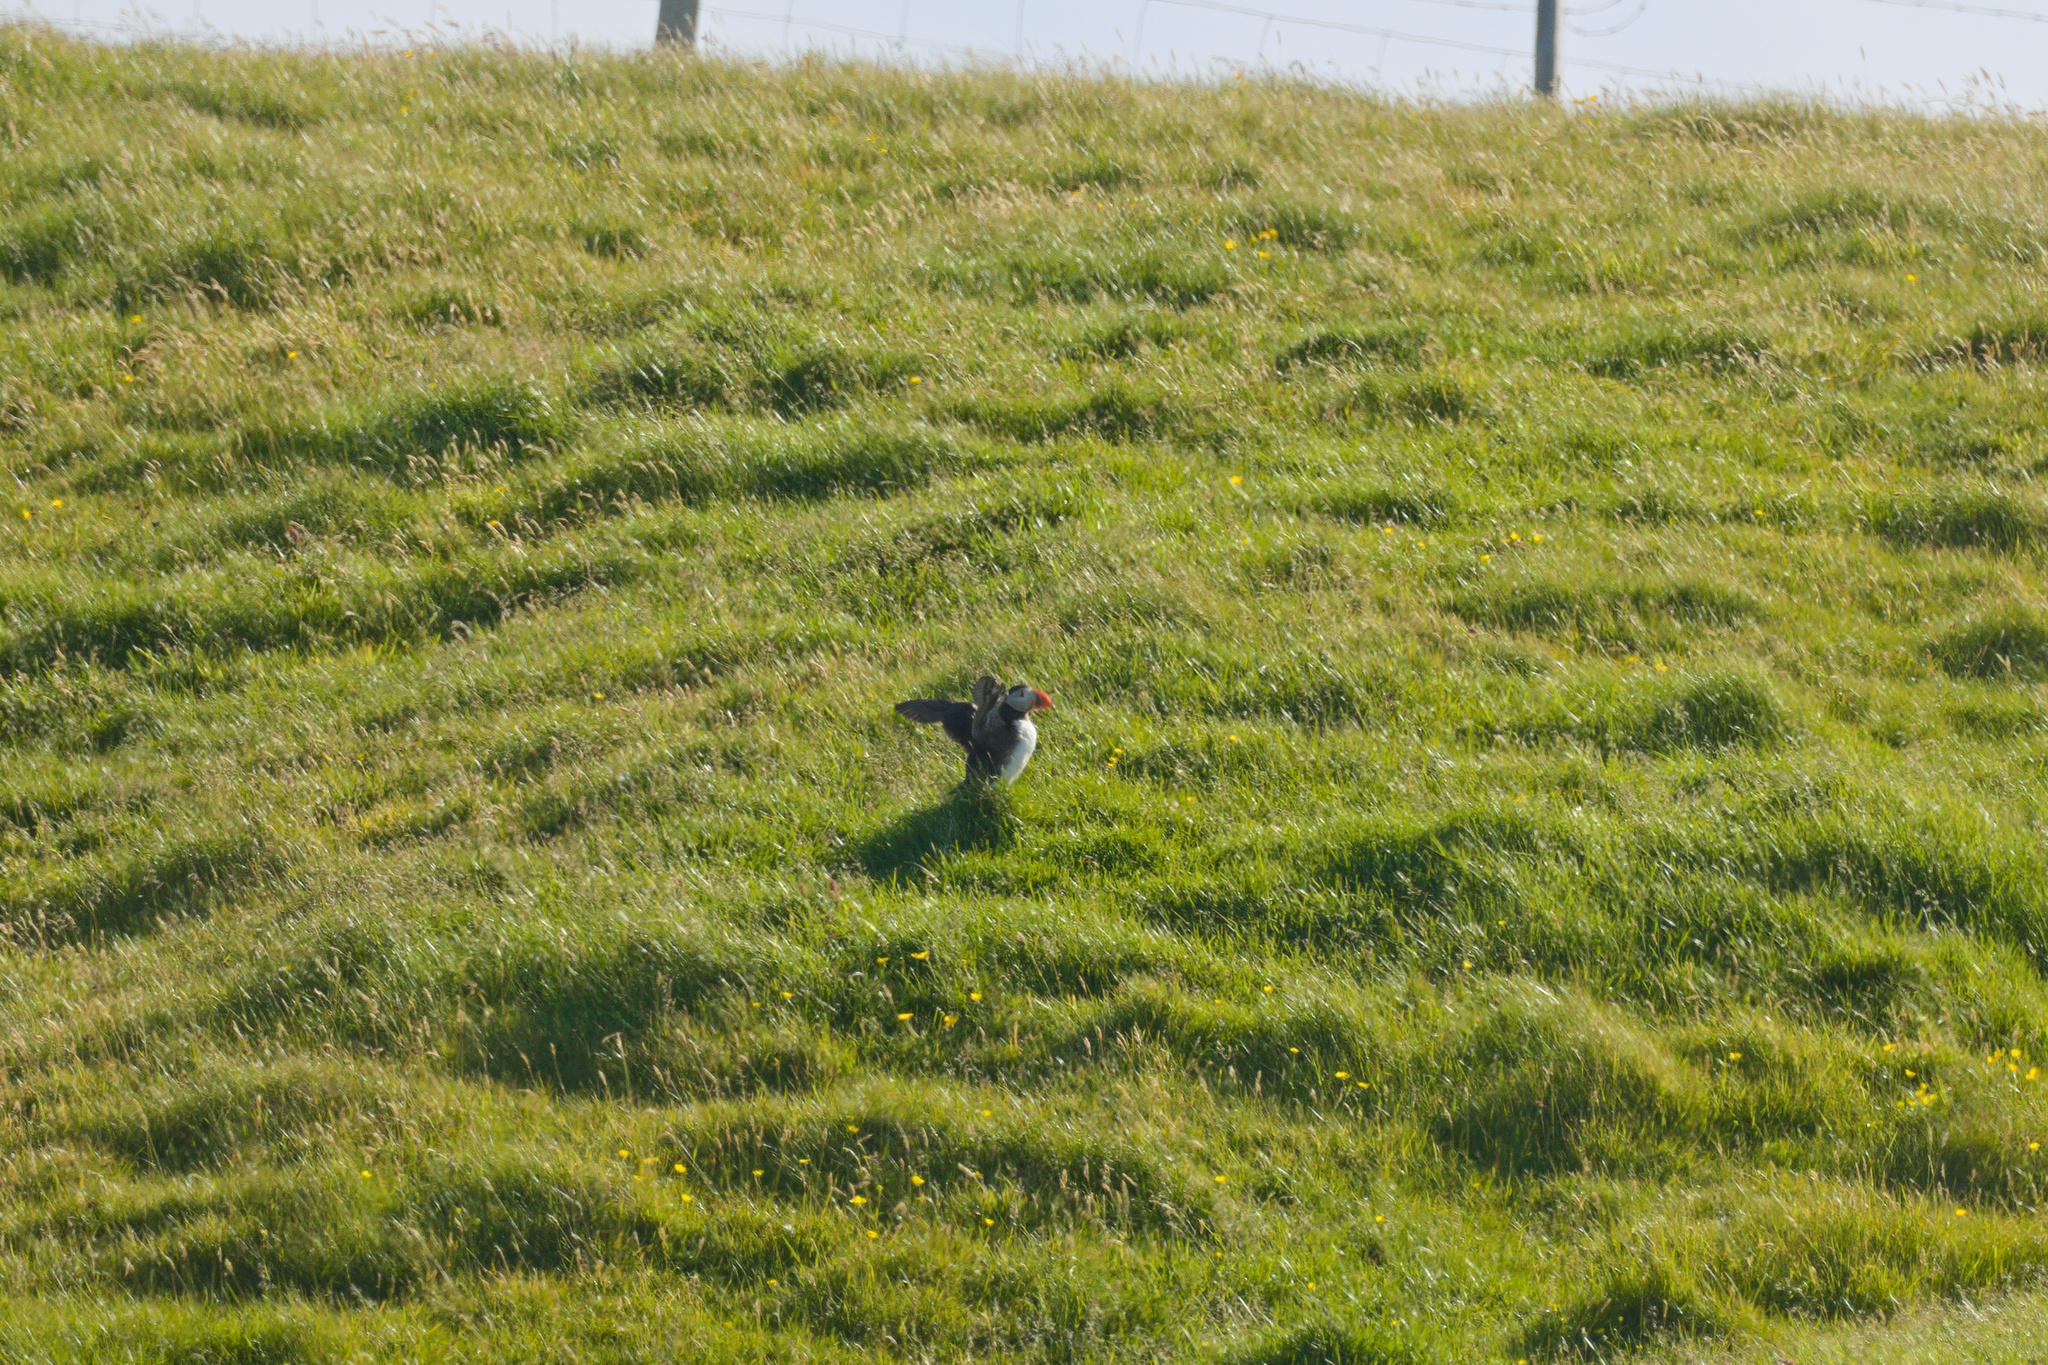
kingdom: Animalia
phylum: Chordata
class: Aves
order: Charadriiformes
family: Alcidae
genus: Fratercula
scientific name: Fratercula arctica
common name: Atlantic puffin
